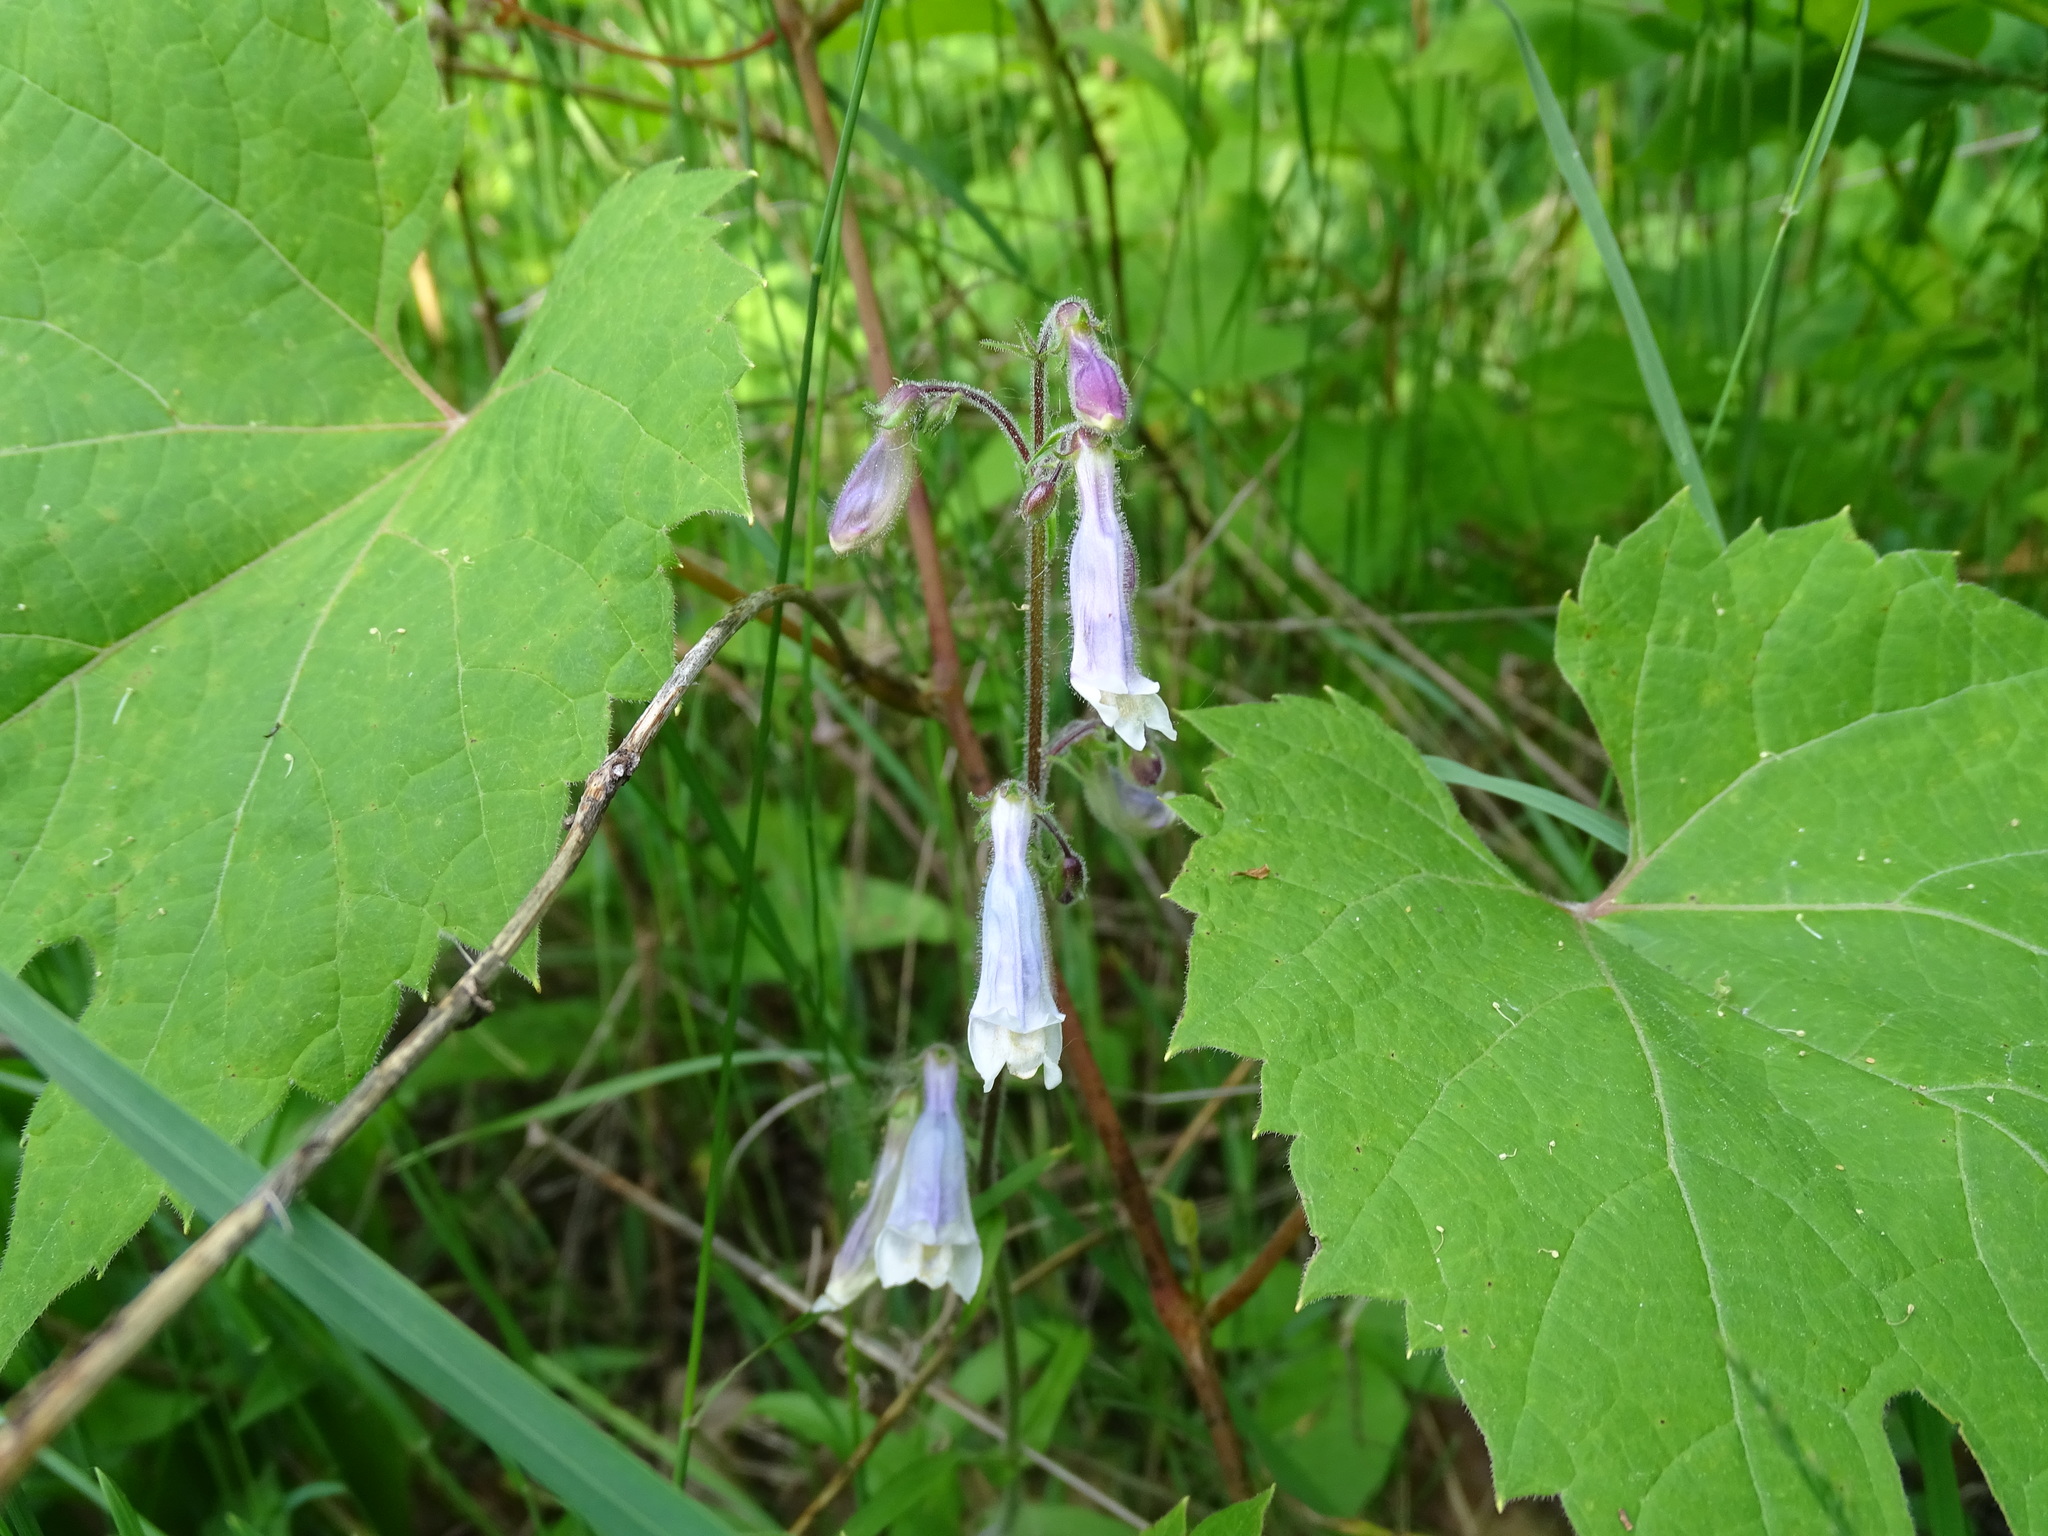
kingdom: Plantae
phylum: Tracheophyta
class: Magnoliopsida
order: Lamiales
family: Plantaginaceae
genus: Penstemon
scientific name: Penstemon hirsutus
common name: Hairy beardtongue
